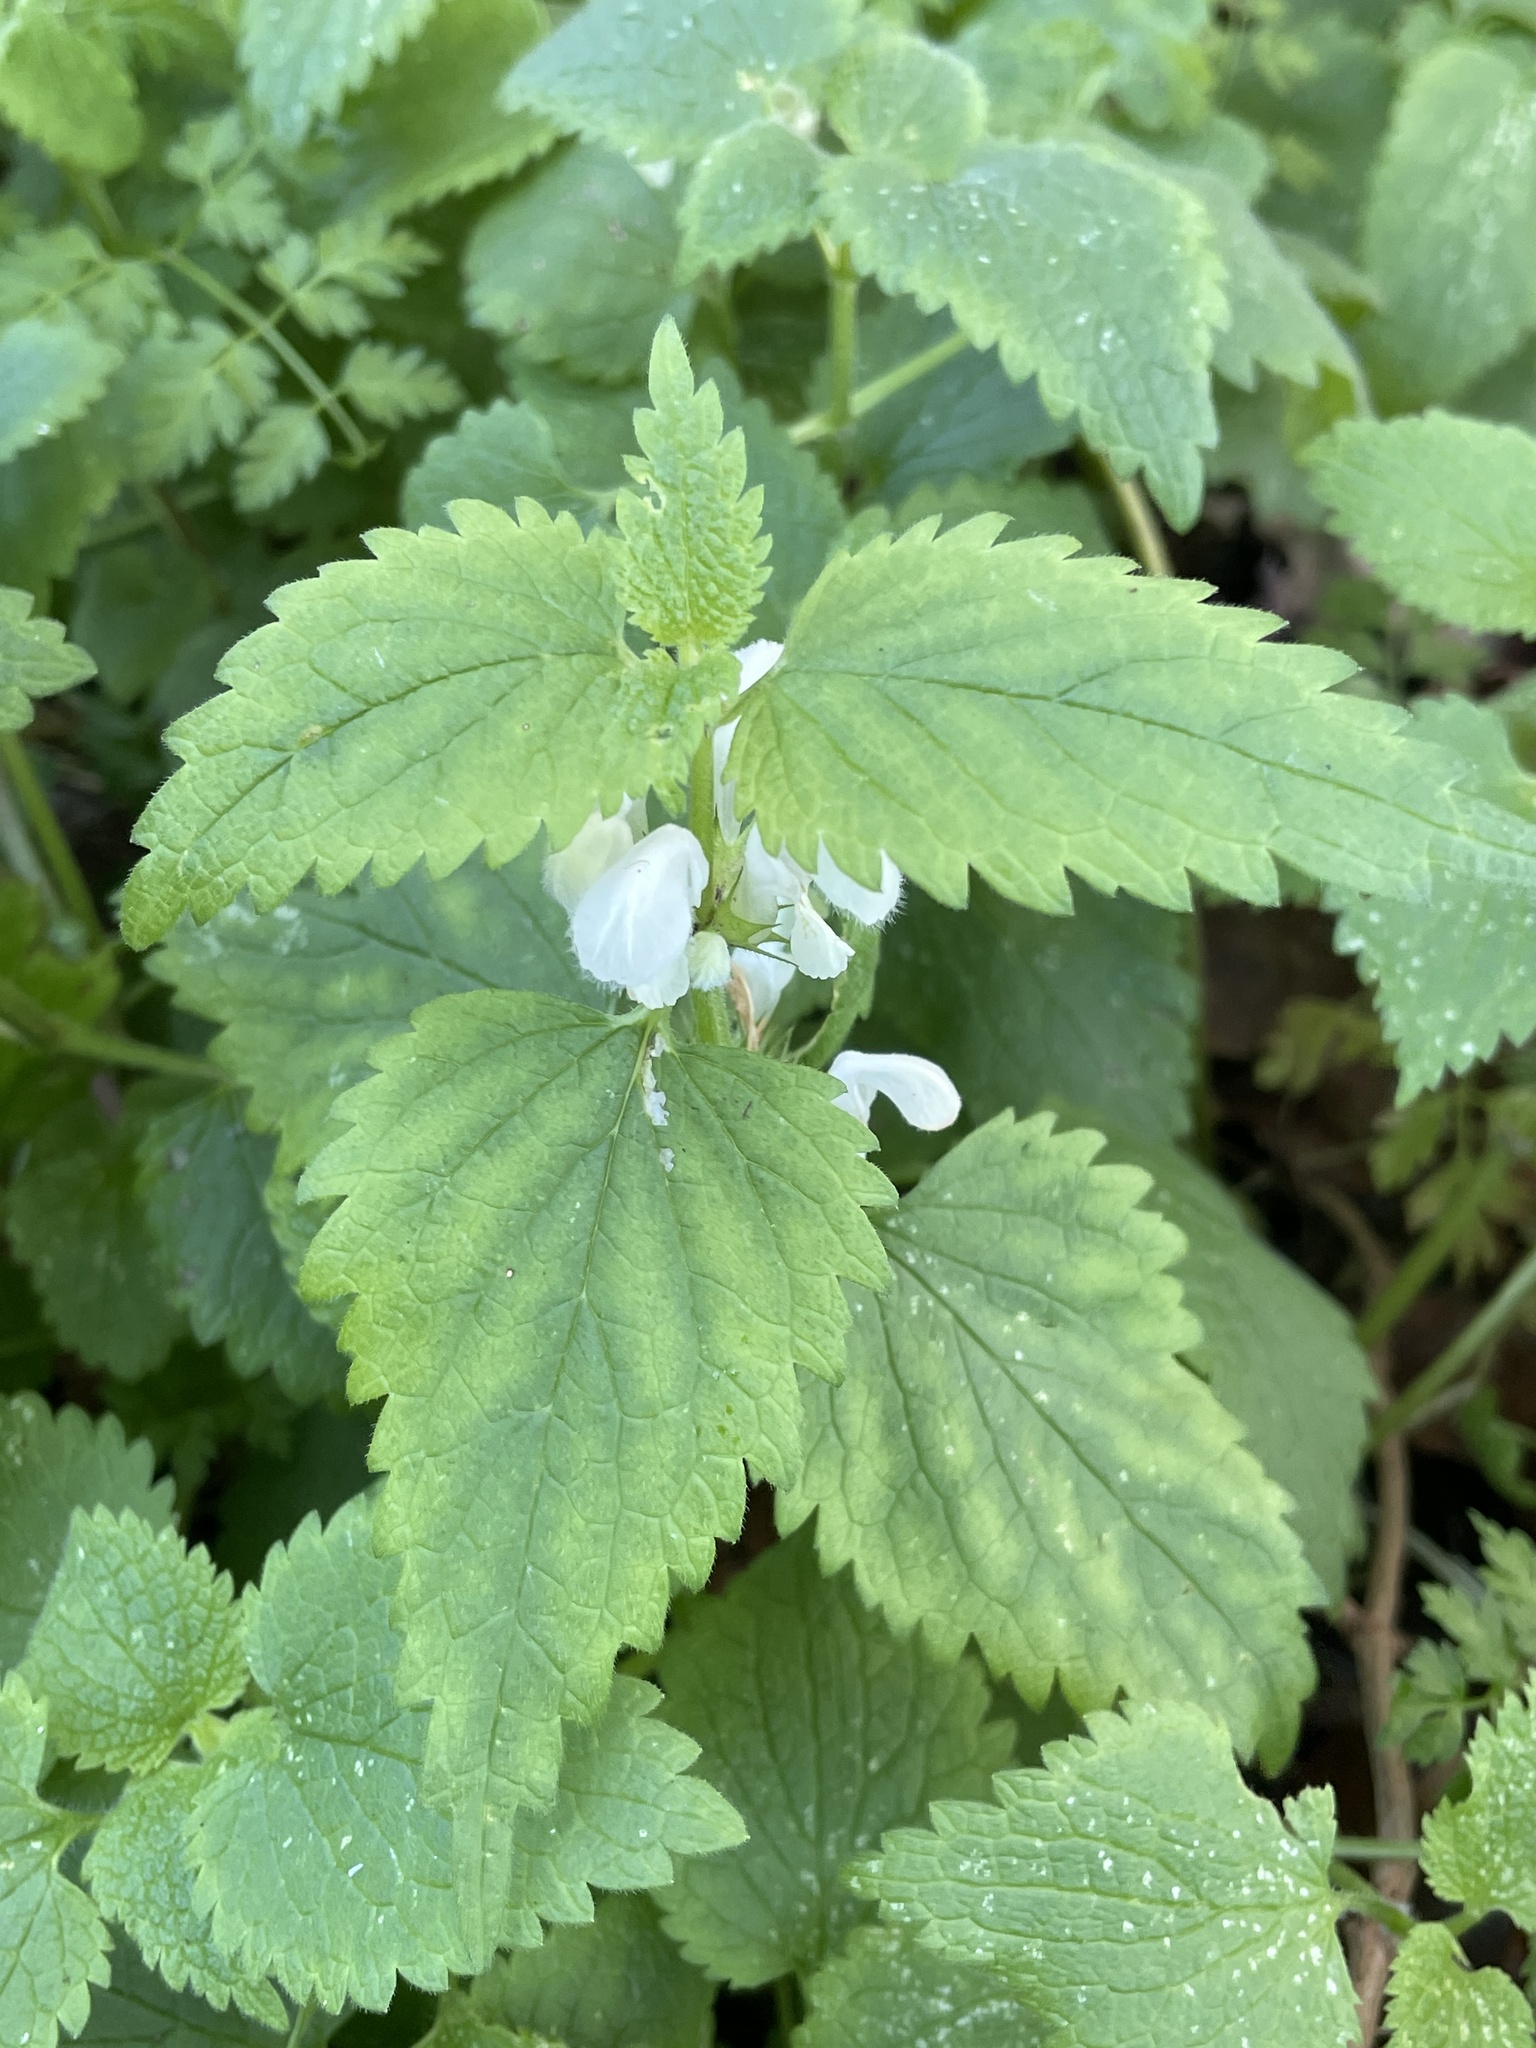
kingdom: Plantae
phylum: Tracheophyta
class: Magnoliopsida
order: Lamiales
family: Lamiaceae
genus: Lamium
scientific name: Lamium album
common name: White dead-nettle
